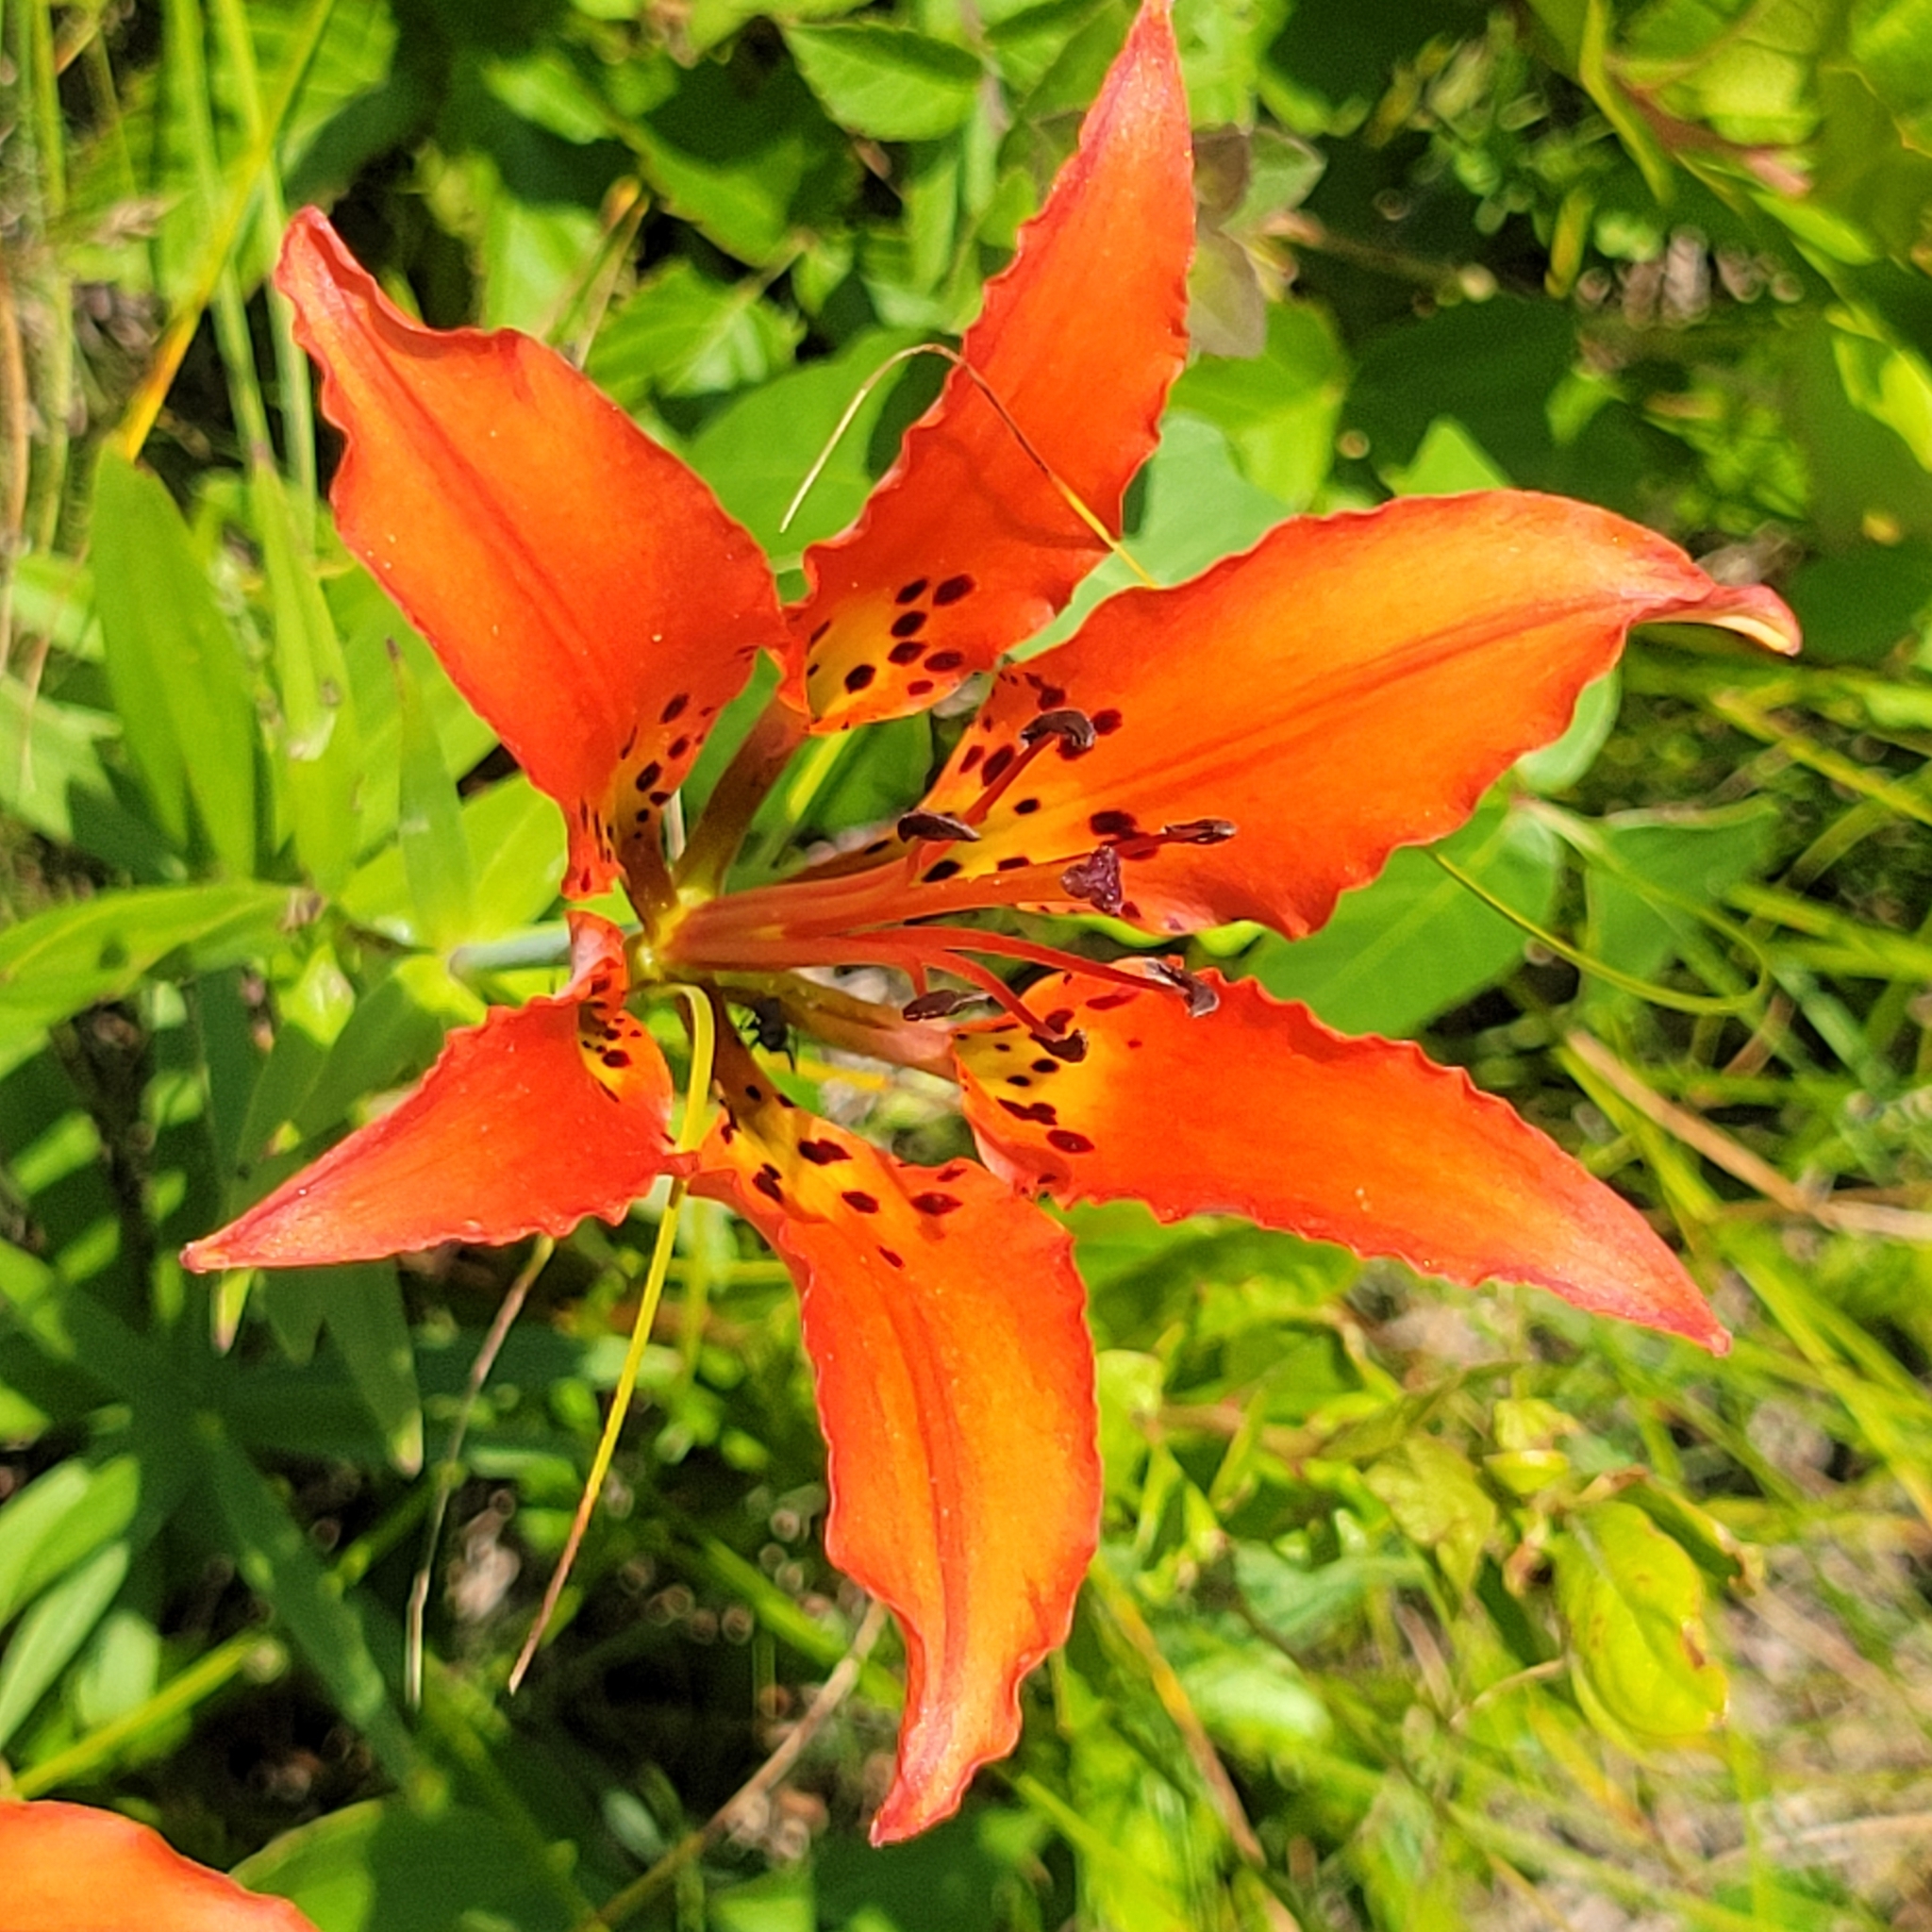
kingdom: Plantae
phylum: Tracheophyta
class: Liliopsida
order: Liliales
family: Liliaceae
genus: Lilium
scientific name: Lilium philadelphicum
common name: Red lily
